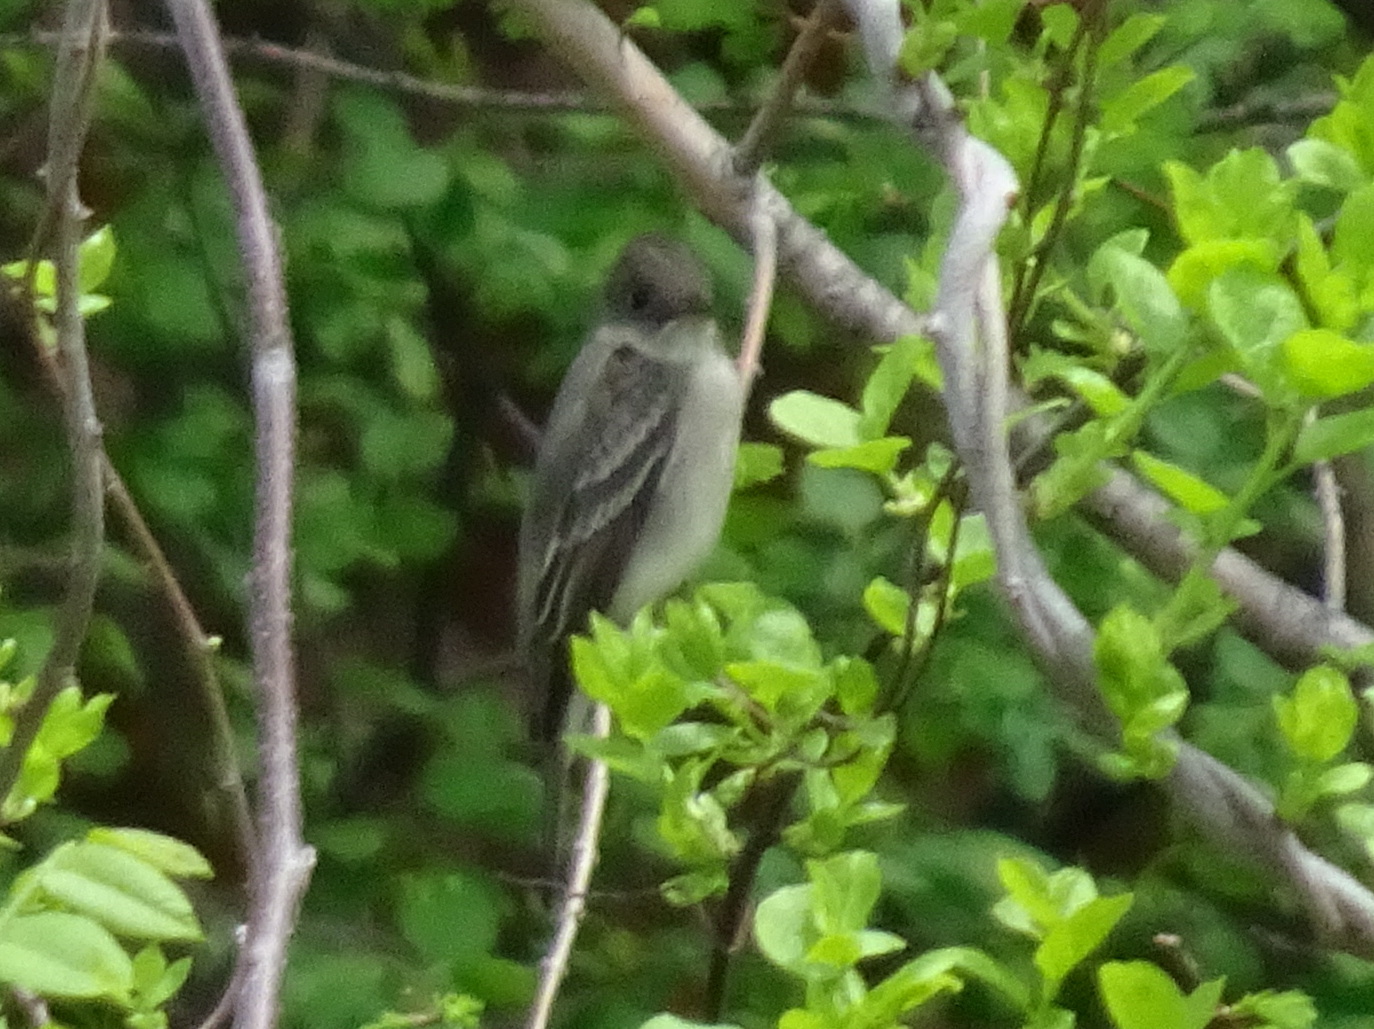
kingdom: Animalia
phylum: Chordata
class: Aves
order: Passeriformes
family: Tyrannidae
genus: Contopus
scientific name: Contopus virens
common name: Eastern wood-pewee
